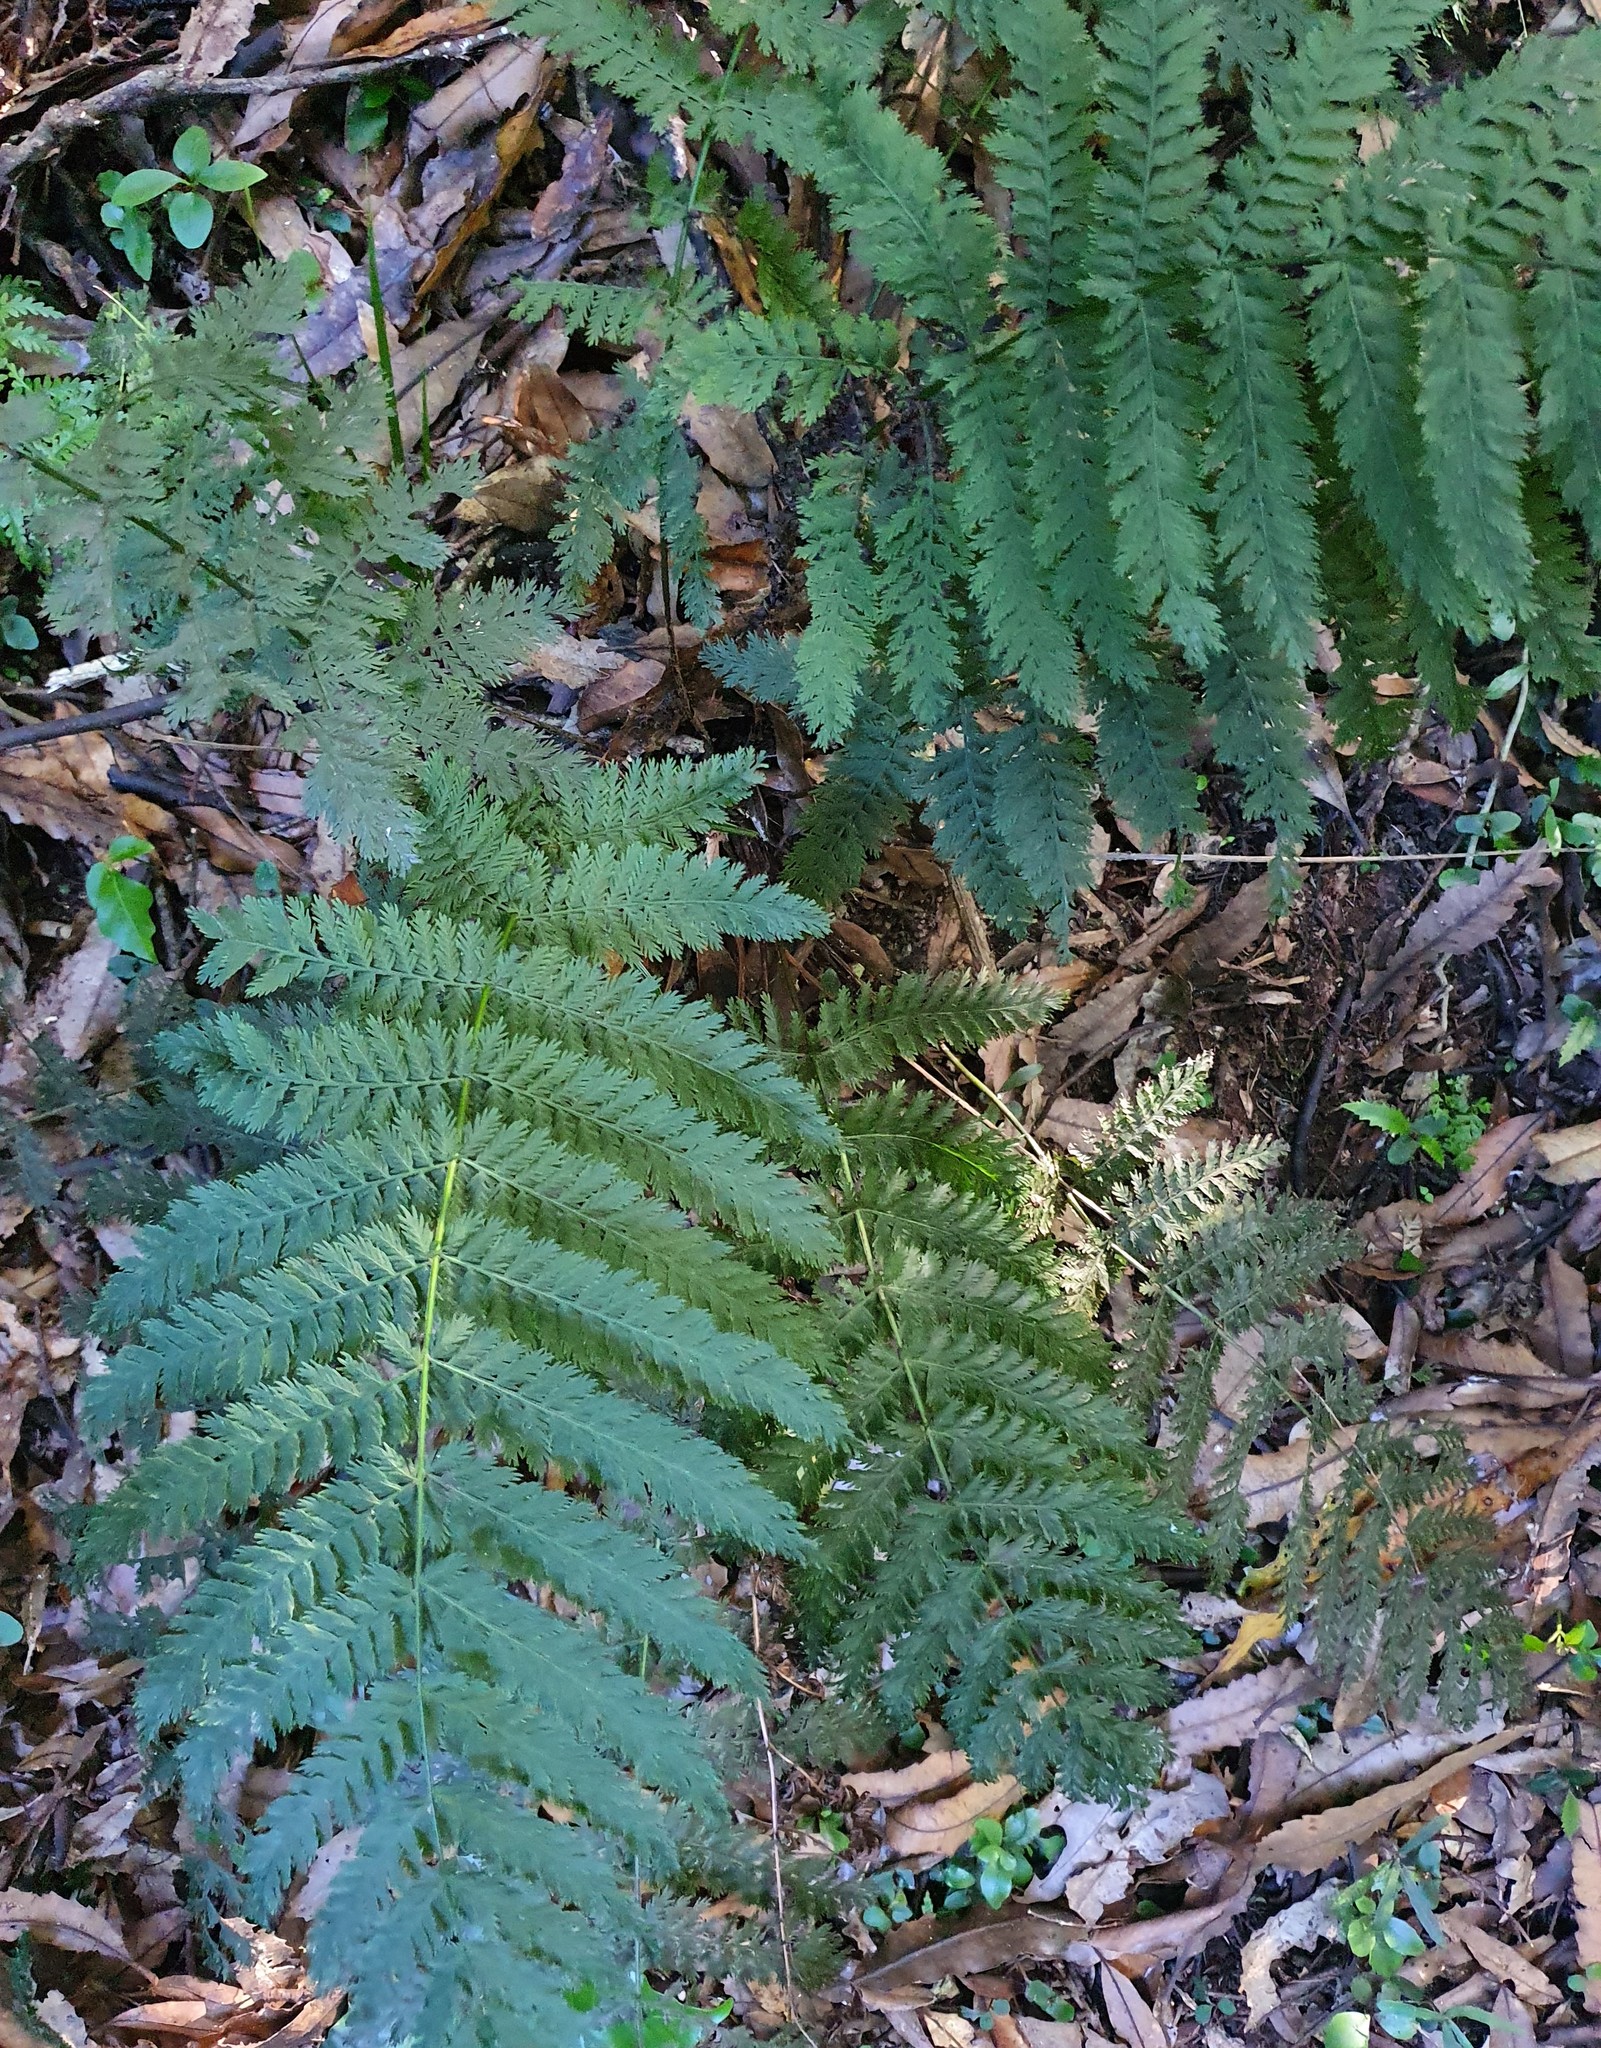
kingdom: Plantae
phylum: Tracheophyta
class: Polypodiopsida
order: Osmundales
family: Osmundaceae
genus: Leptopteris
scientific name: Leptopteris hymenophylloides
